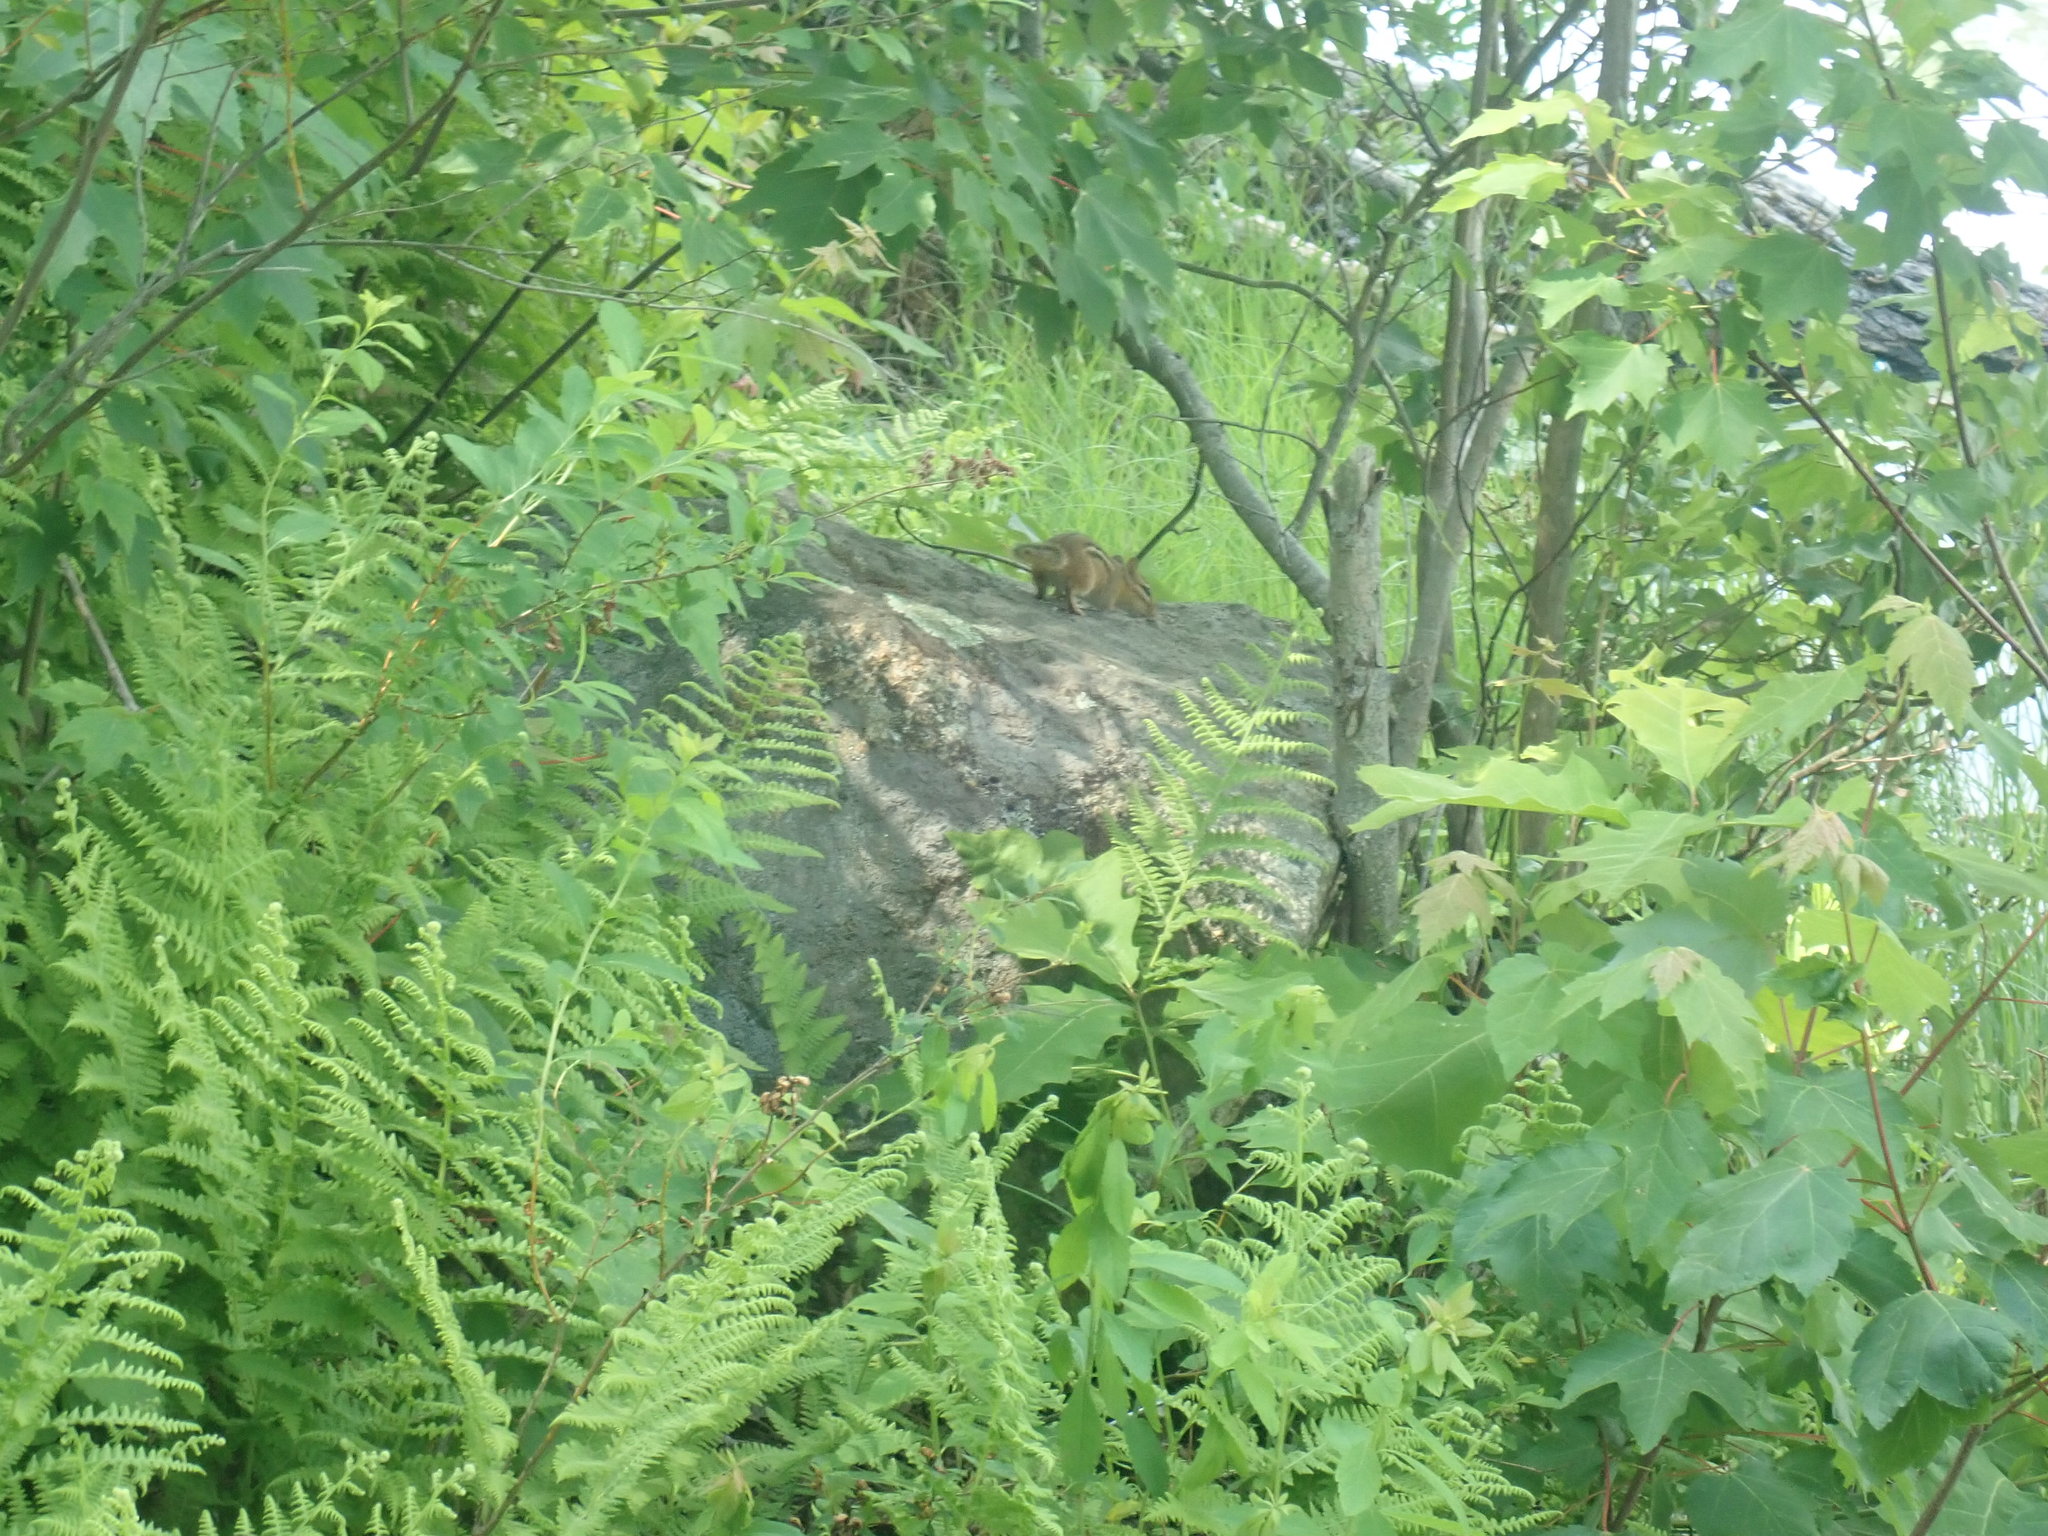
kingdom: Animalia
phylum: Chordata
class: Mammalia
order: Rodentia
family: Sciuridae
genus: Tamias
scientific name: Tamias striatus
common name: Eastern chipmunk
